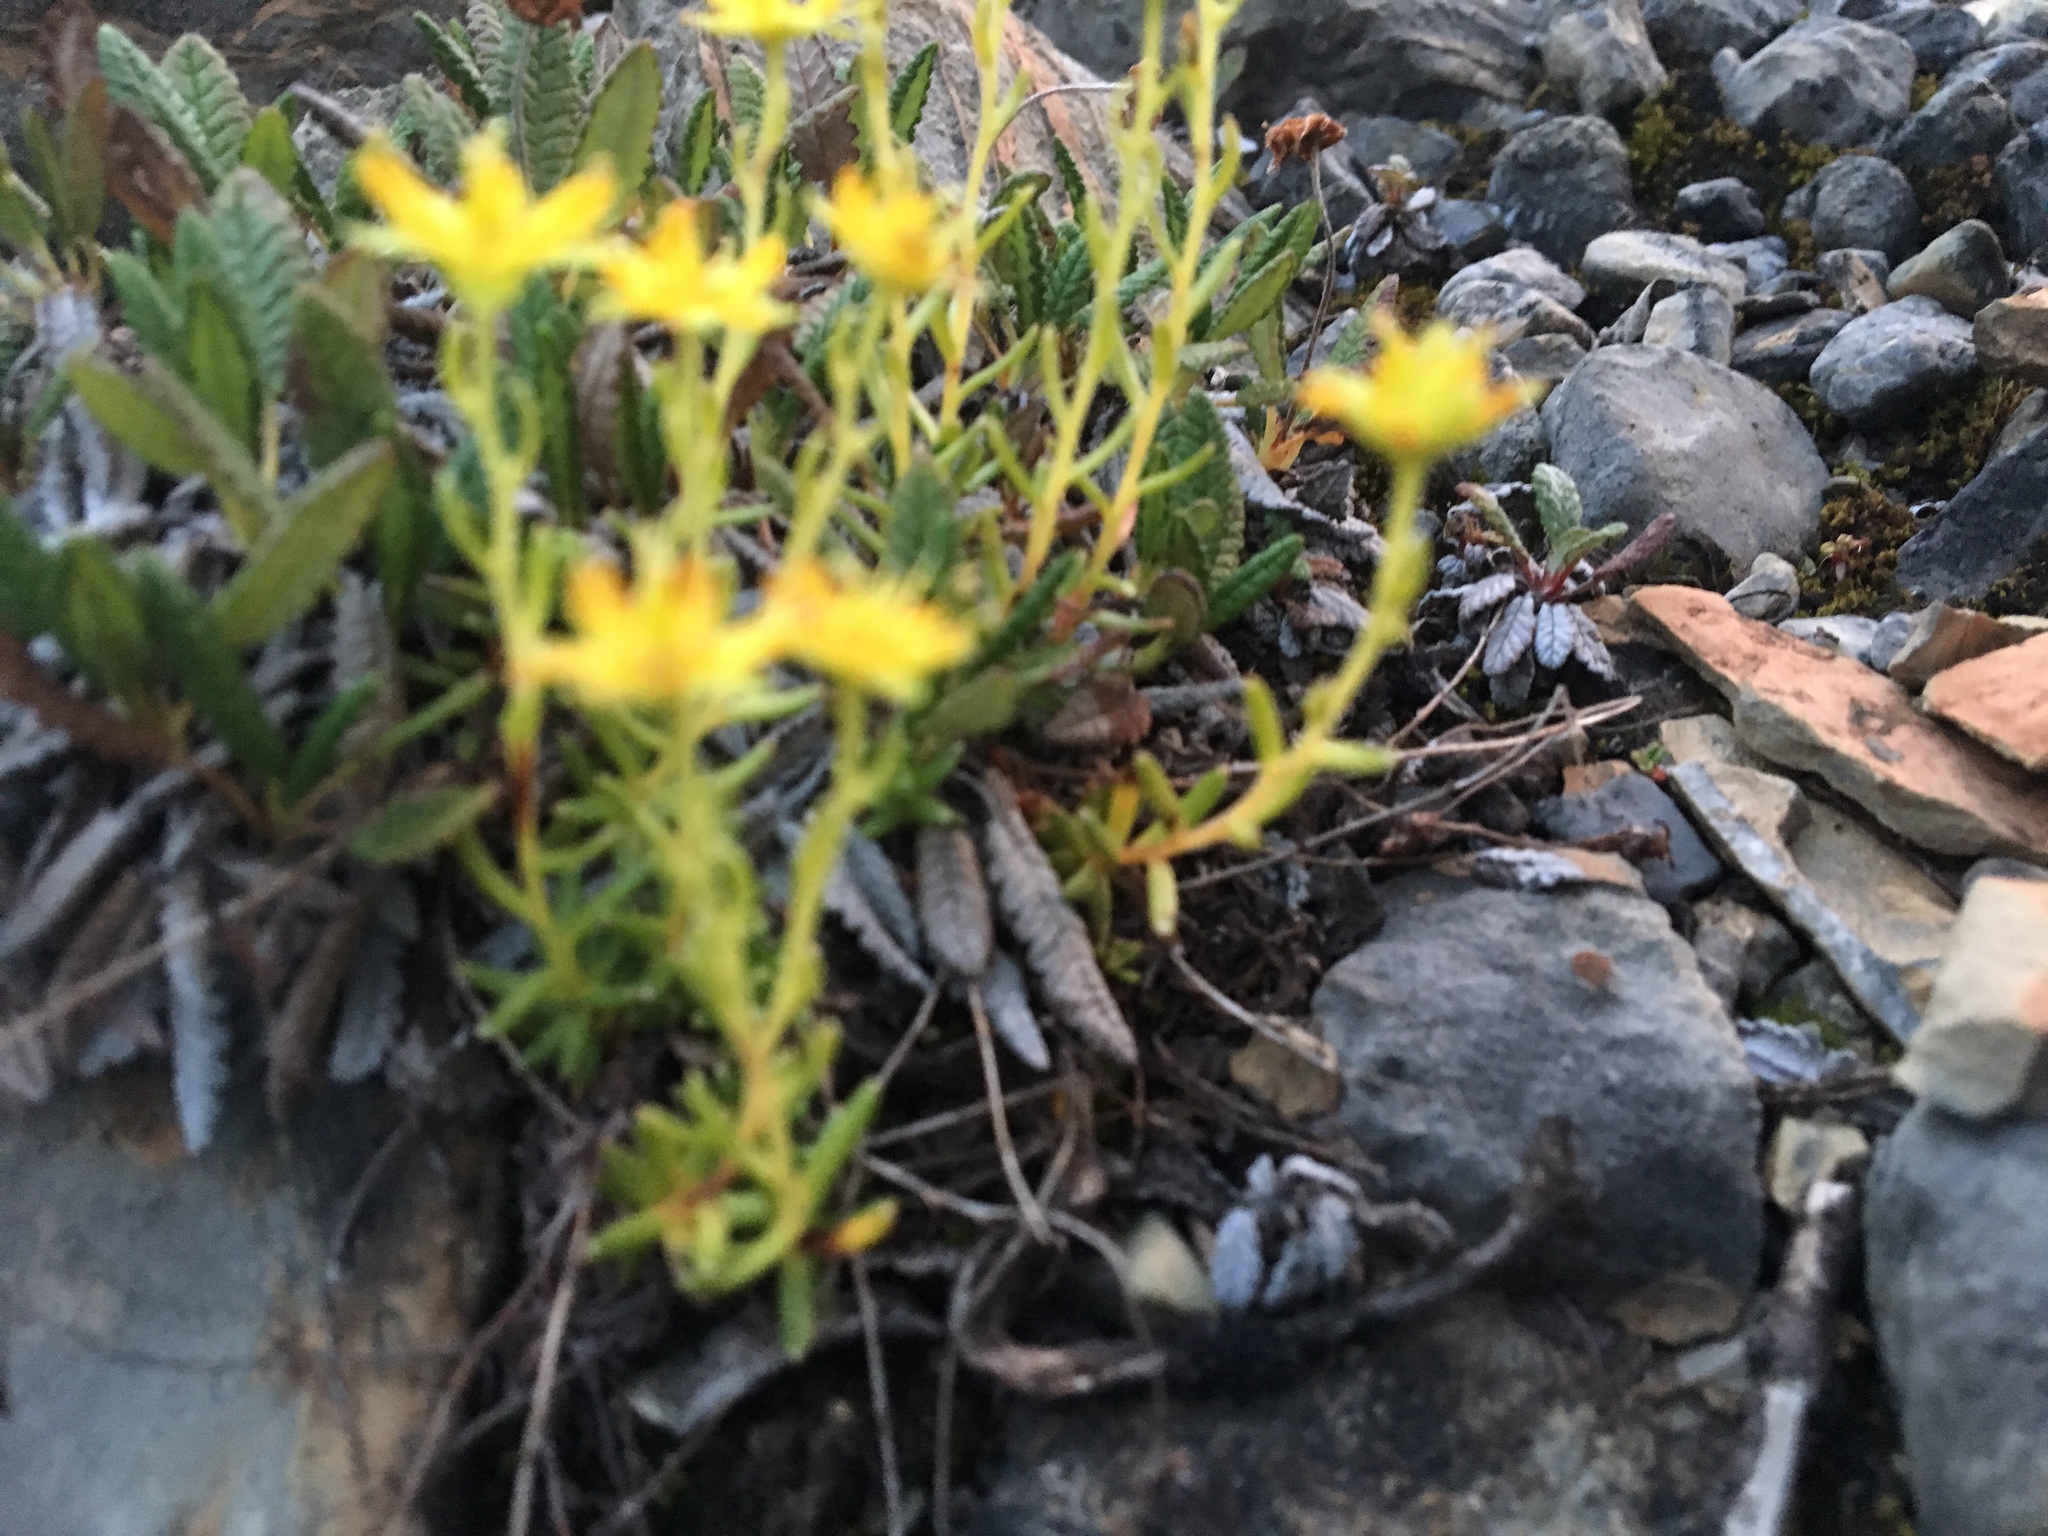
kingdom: Plantae
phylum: Tracheophyta
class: Magnoliopsida
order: Saxifragales
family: Saxifragaceae
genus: Saxifraga
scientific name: Saxifraga aizoides
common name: Yellow mountain saxifrage
